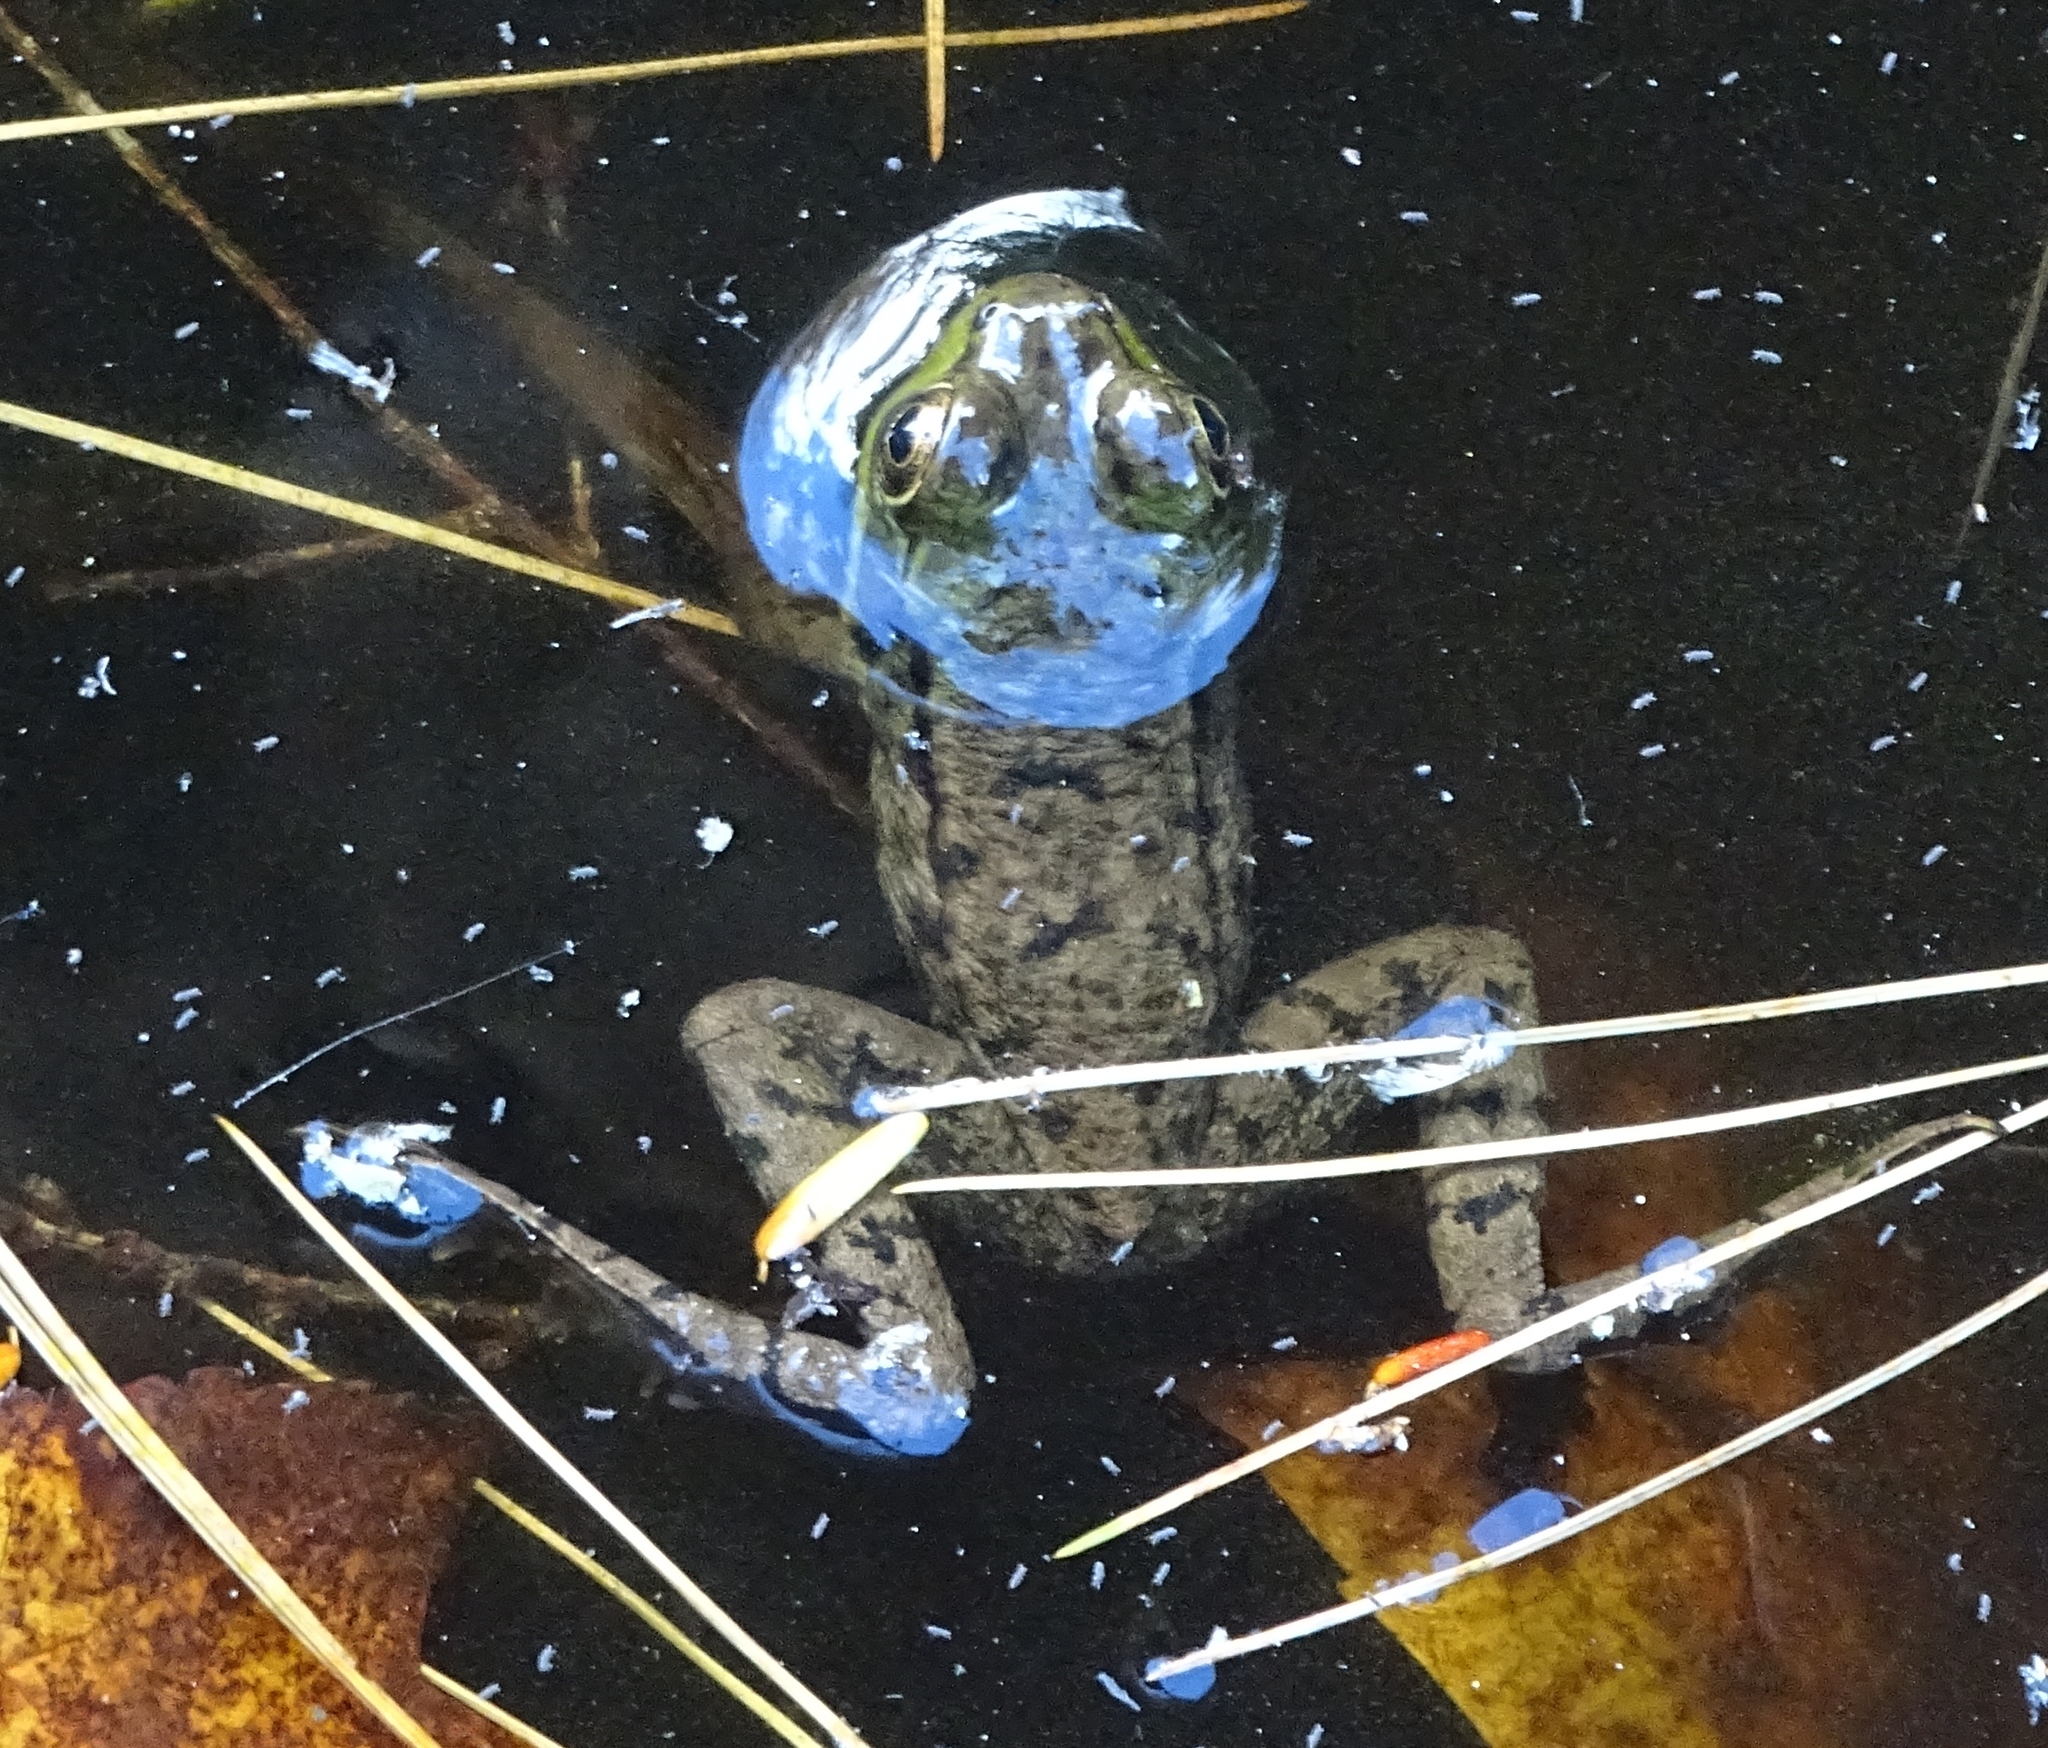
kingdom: Animalia
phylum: Chordata
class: Amphibia
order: Anura
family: Ranidae
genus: Lithobates
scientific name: Lithobates clamitans
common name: Green frog
